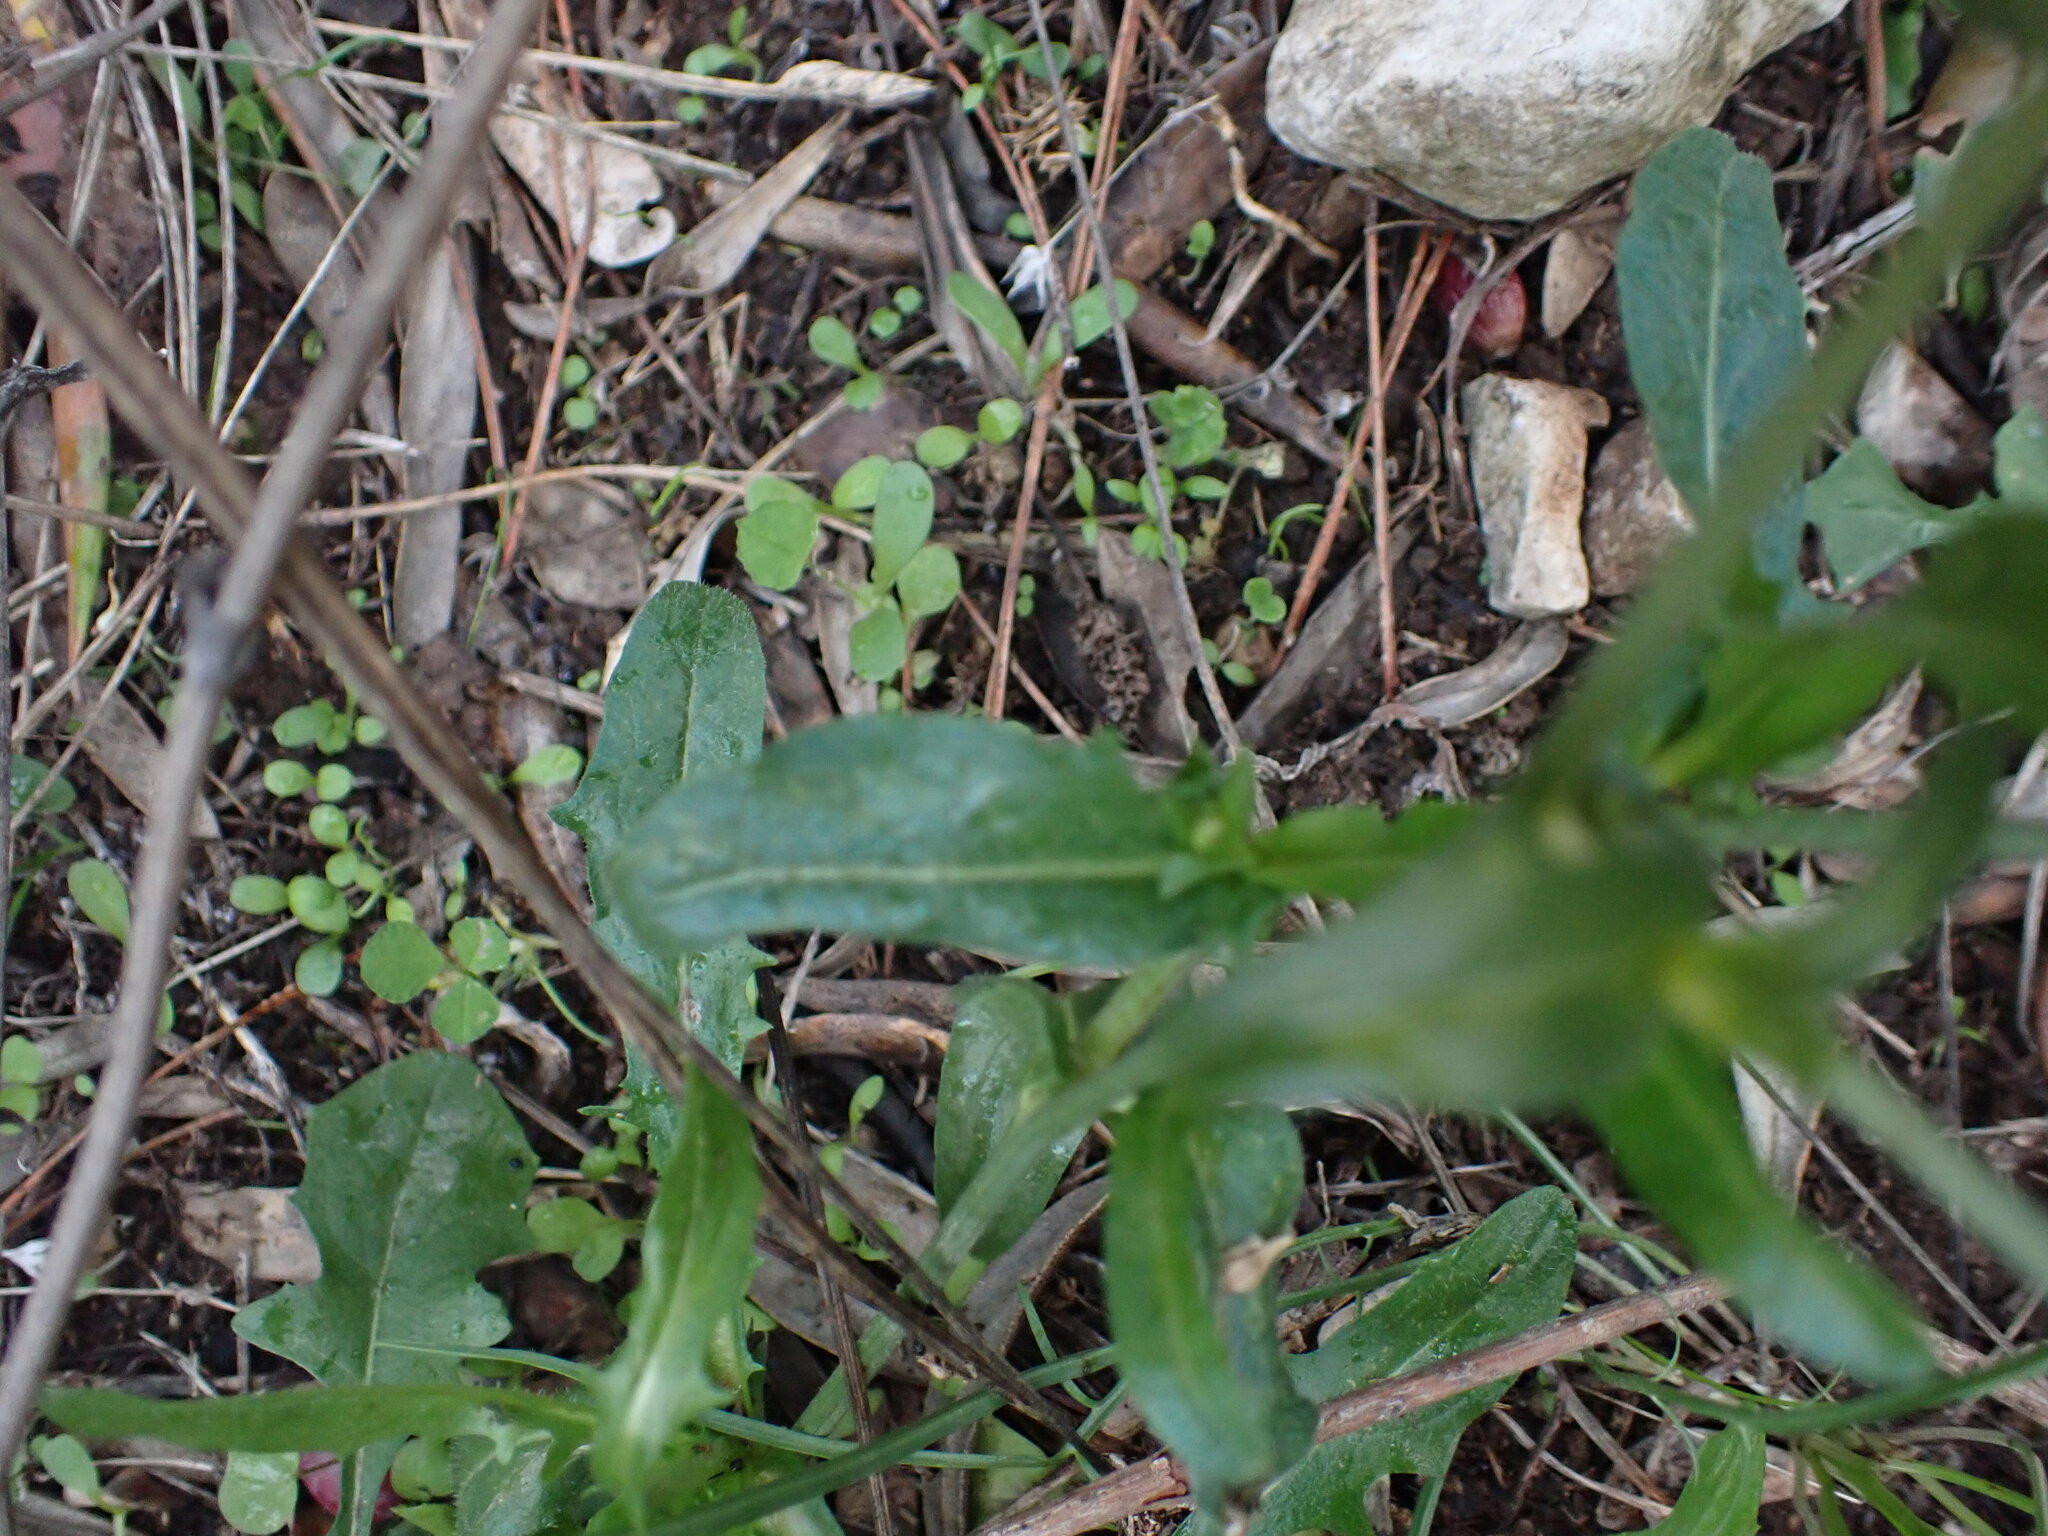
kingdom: Plantae
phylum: Tracheophyta
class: Magnoliopsida
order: Asterales
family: Asteraceae
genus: Cichorium
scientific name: Cichorium intybus
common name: Chicory
